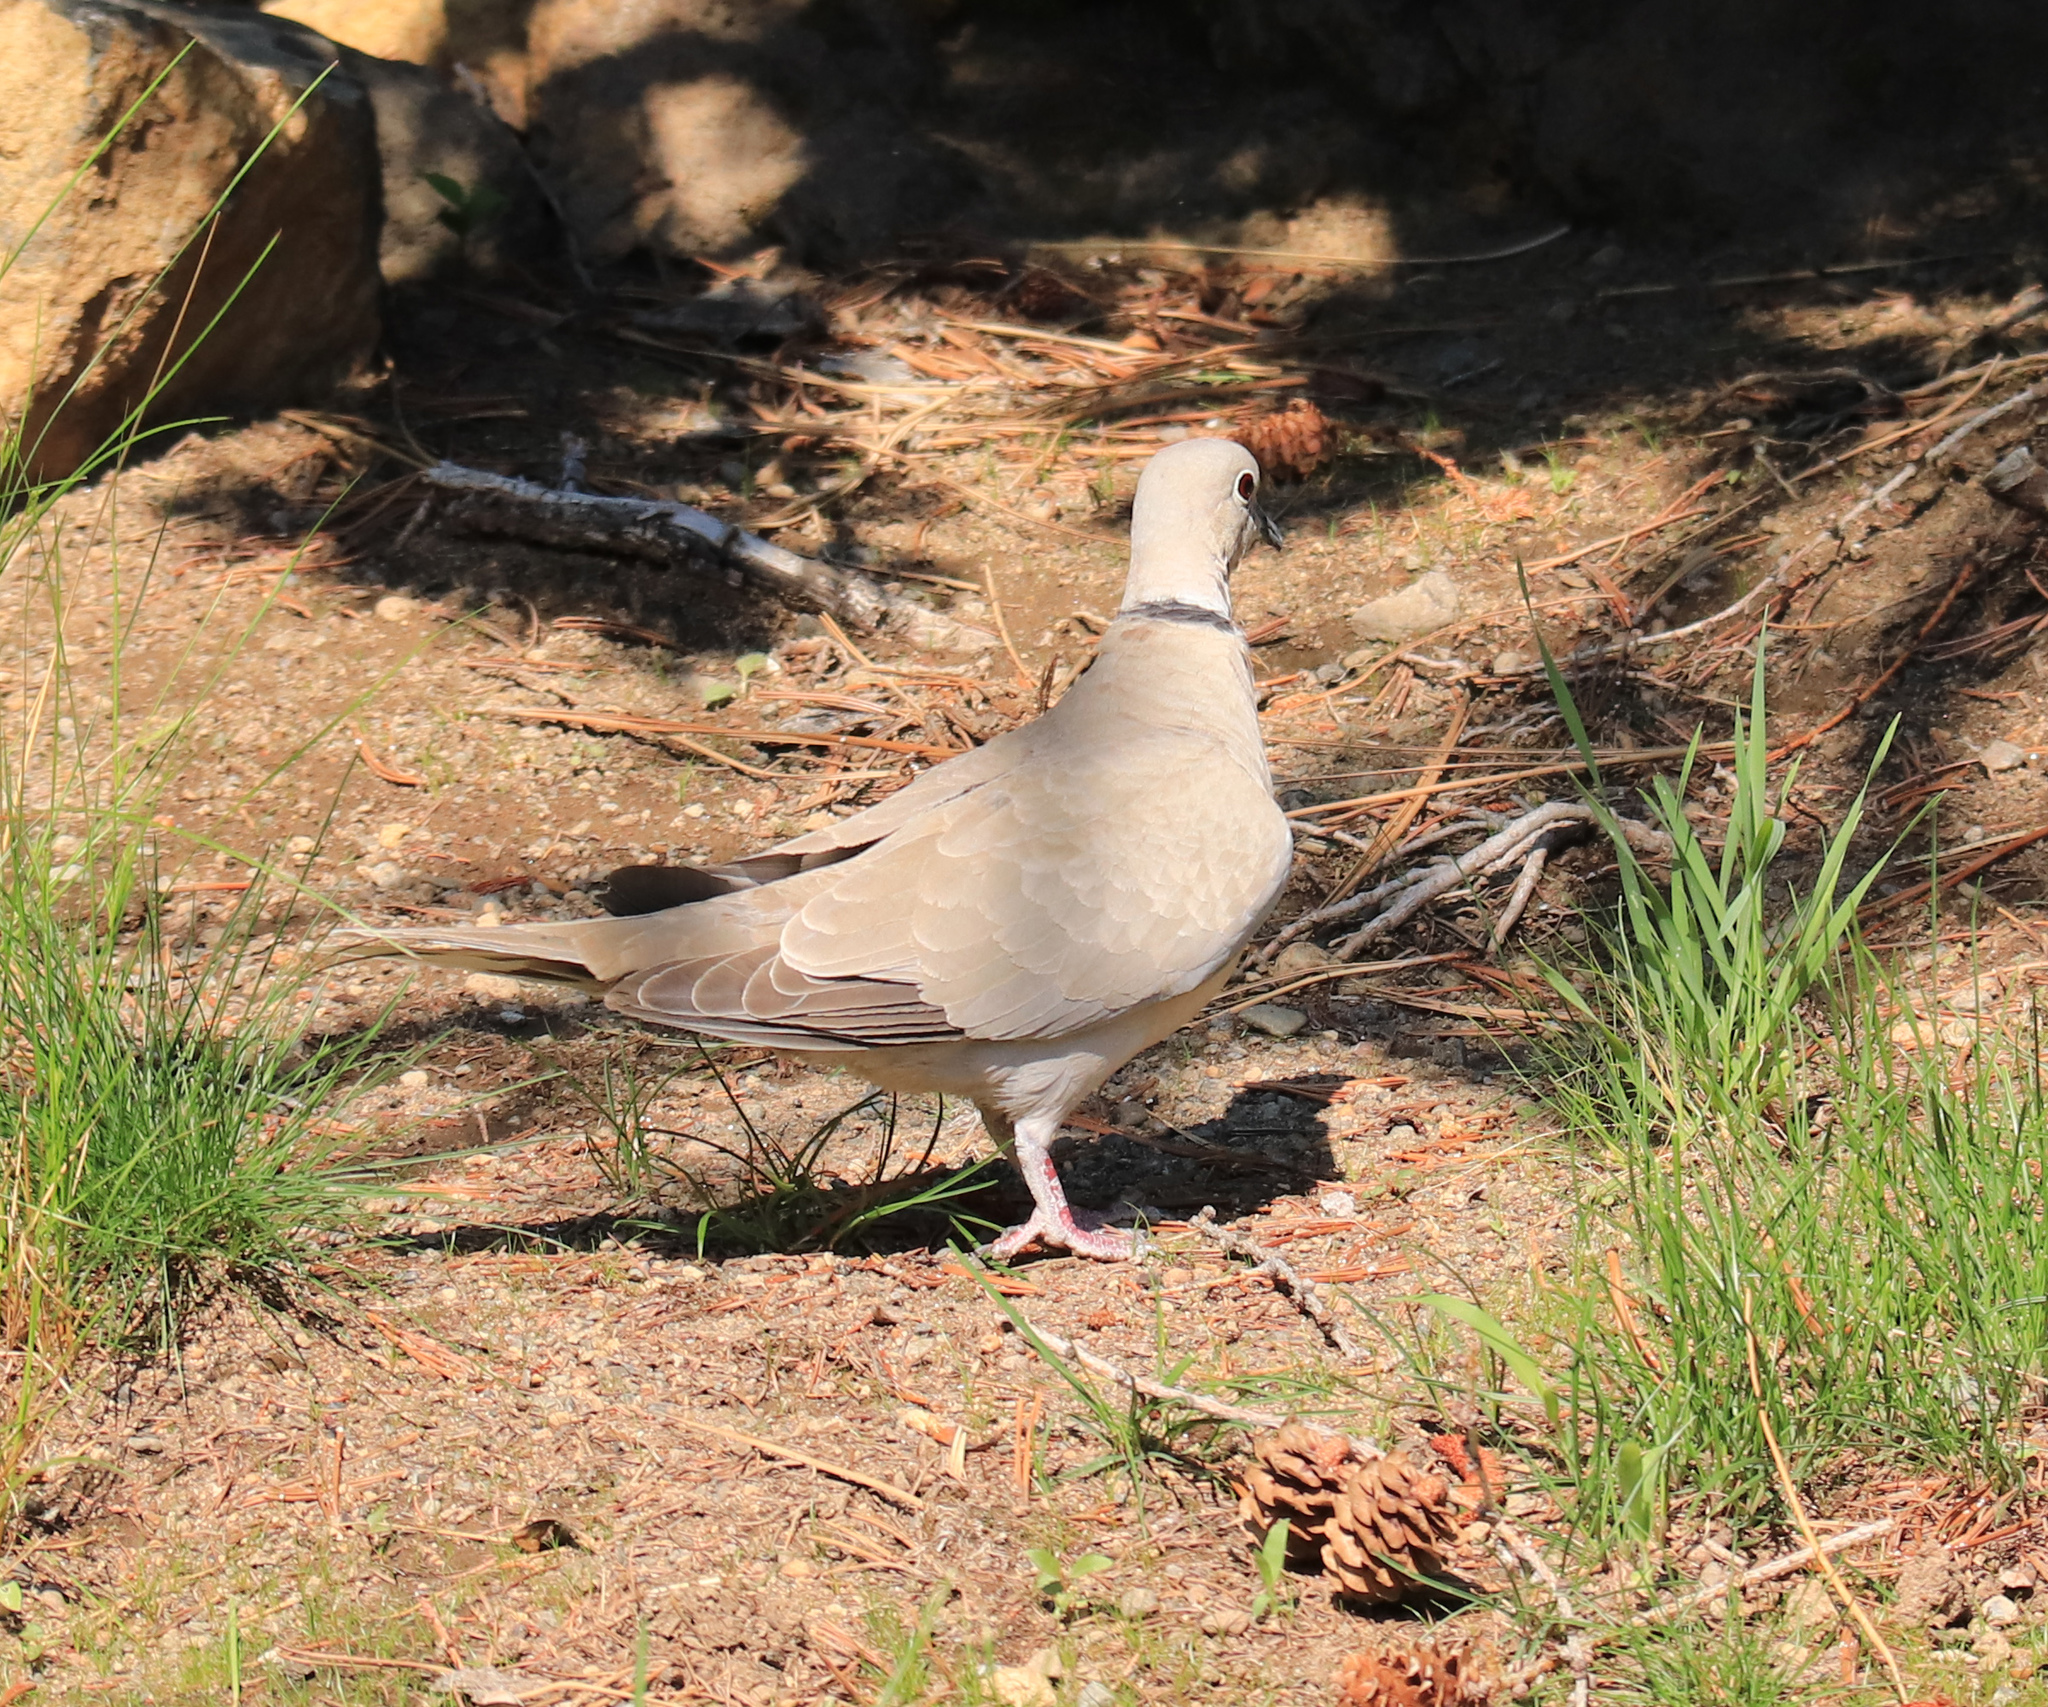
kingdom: Animalia
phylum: Chordata
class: Aves
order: Columbiformes
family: Columbidae
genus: Streptopelia
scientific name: Streptopelia decaocto
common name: Eurasian collared dove
